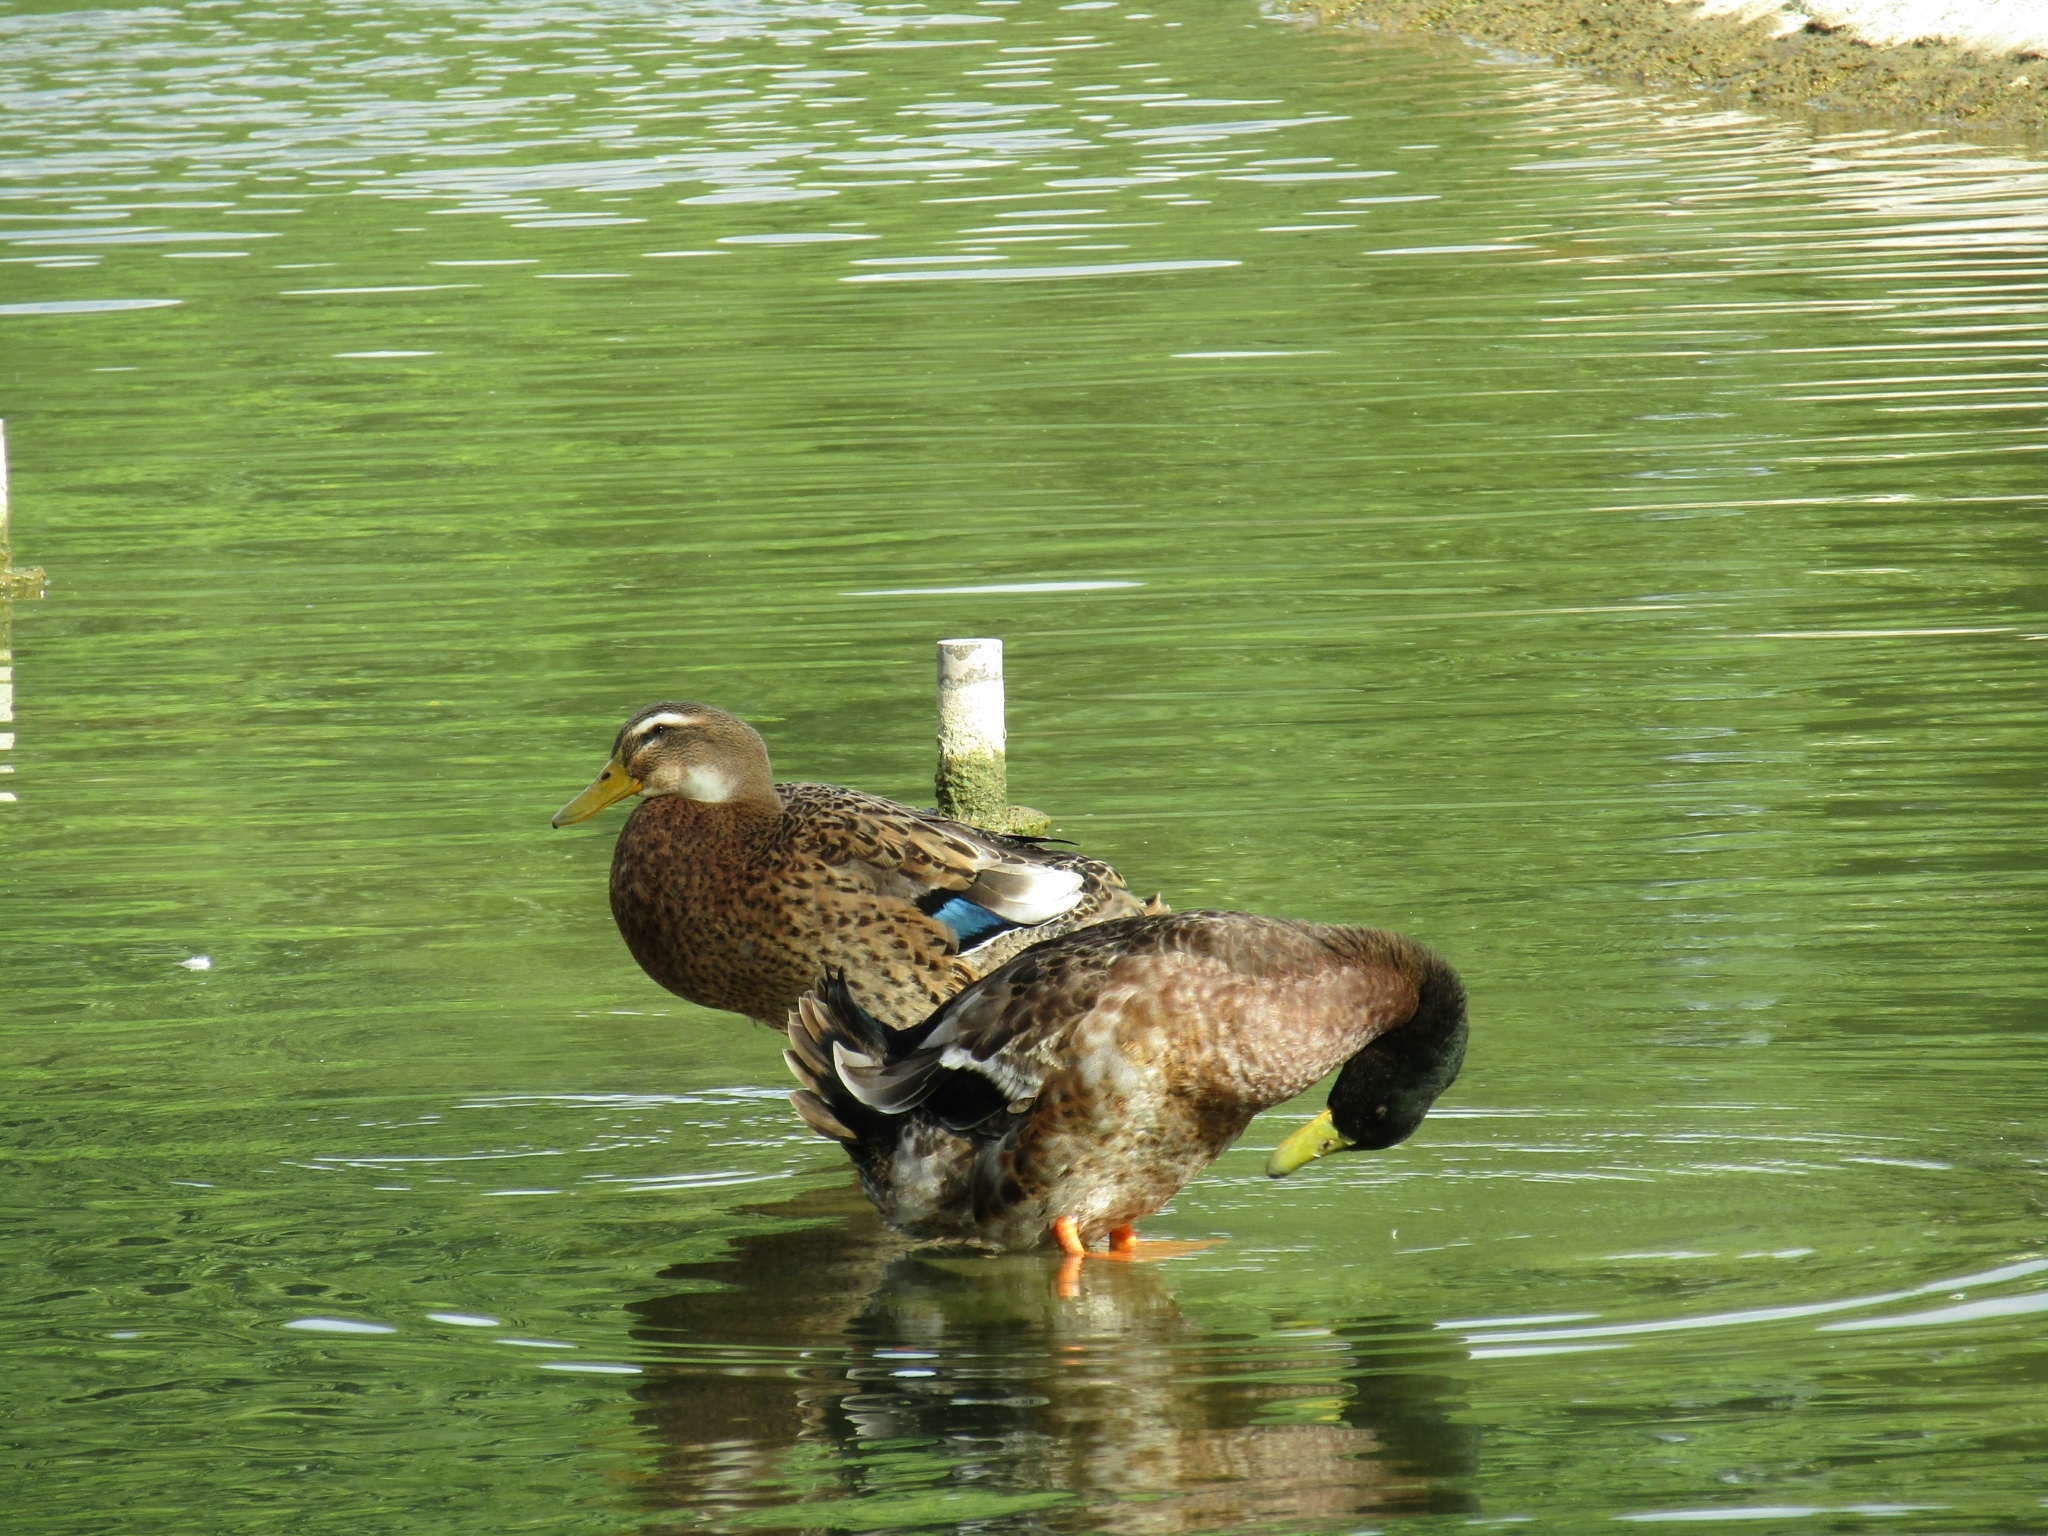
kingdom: Animalia
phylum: Chordata
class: Aves
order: Anseriformes
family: Anatidae
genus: Anas
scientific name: Anas platyrhynchos
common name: Mallard
